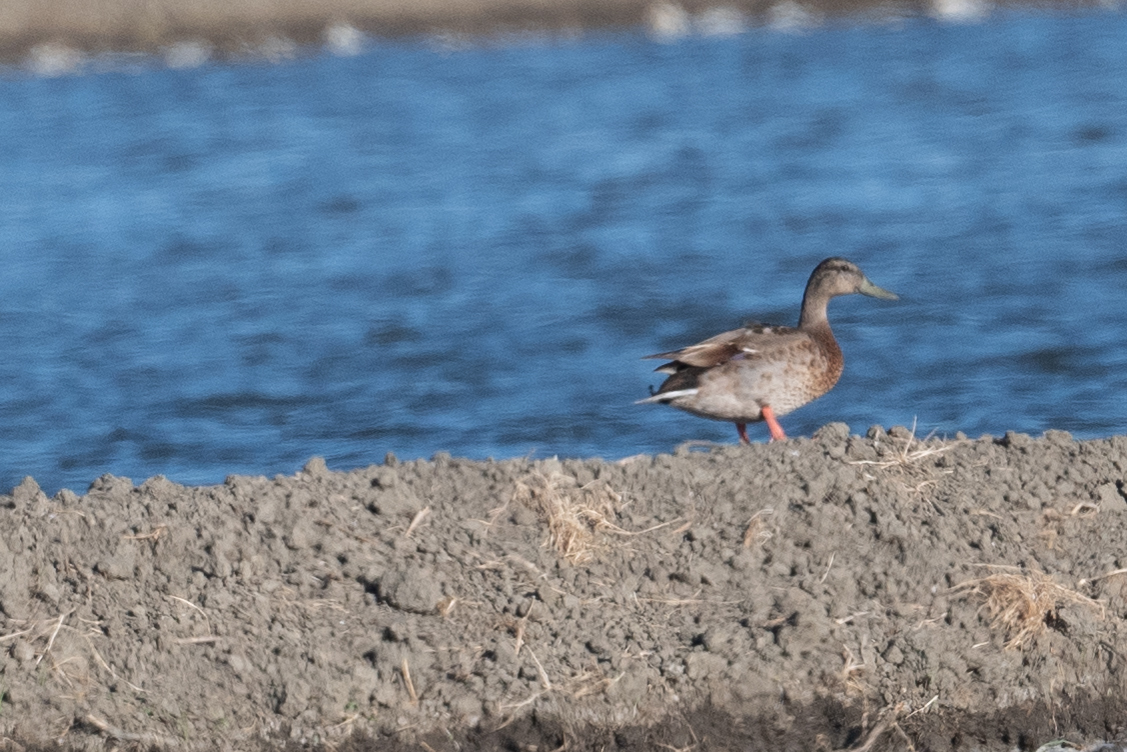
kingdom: Animalia
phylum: Chordata
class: Aves
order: Anseriformes
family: Anatidae
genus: Anas
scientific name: Anas platyrhynchos
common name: Mallard
